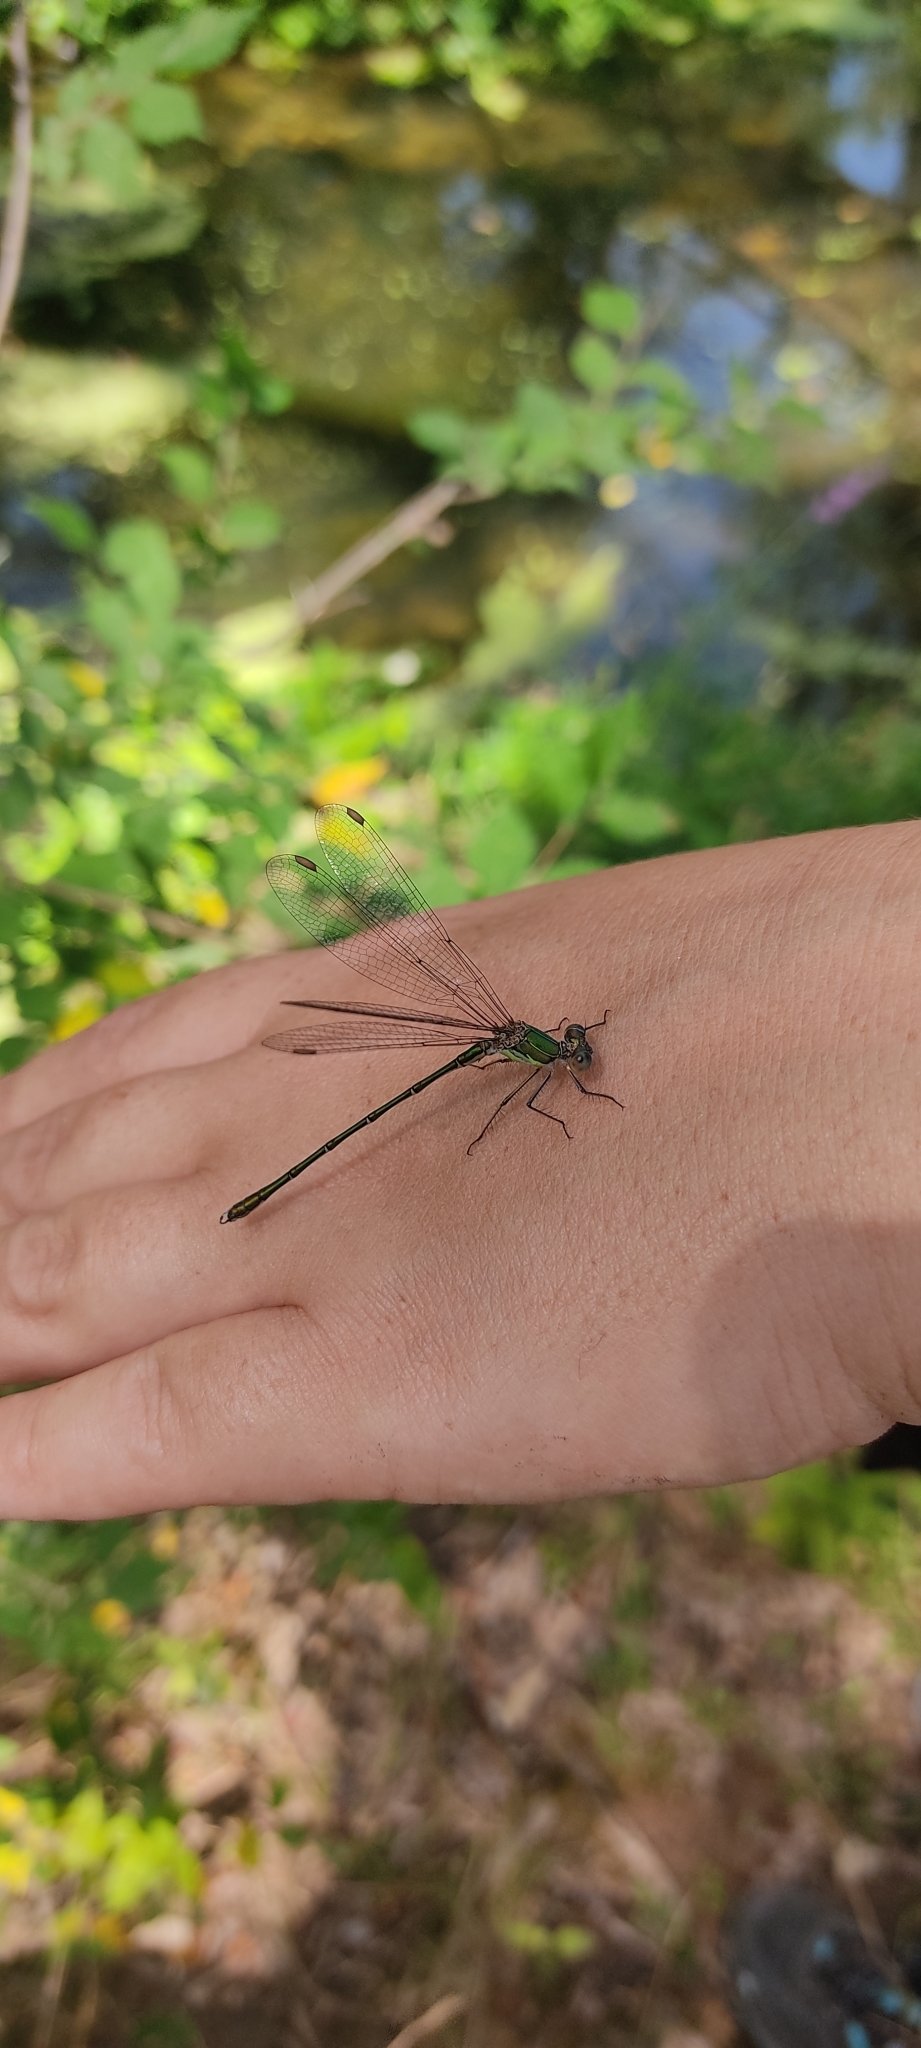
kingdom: Animalia
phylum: Arthropoda
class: Insecta
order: Odonata
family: Lestidae
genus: Chalcolestes
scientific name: Chalcolestes viridis
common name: Green emerald damselfly
